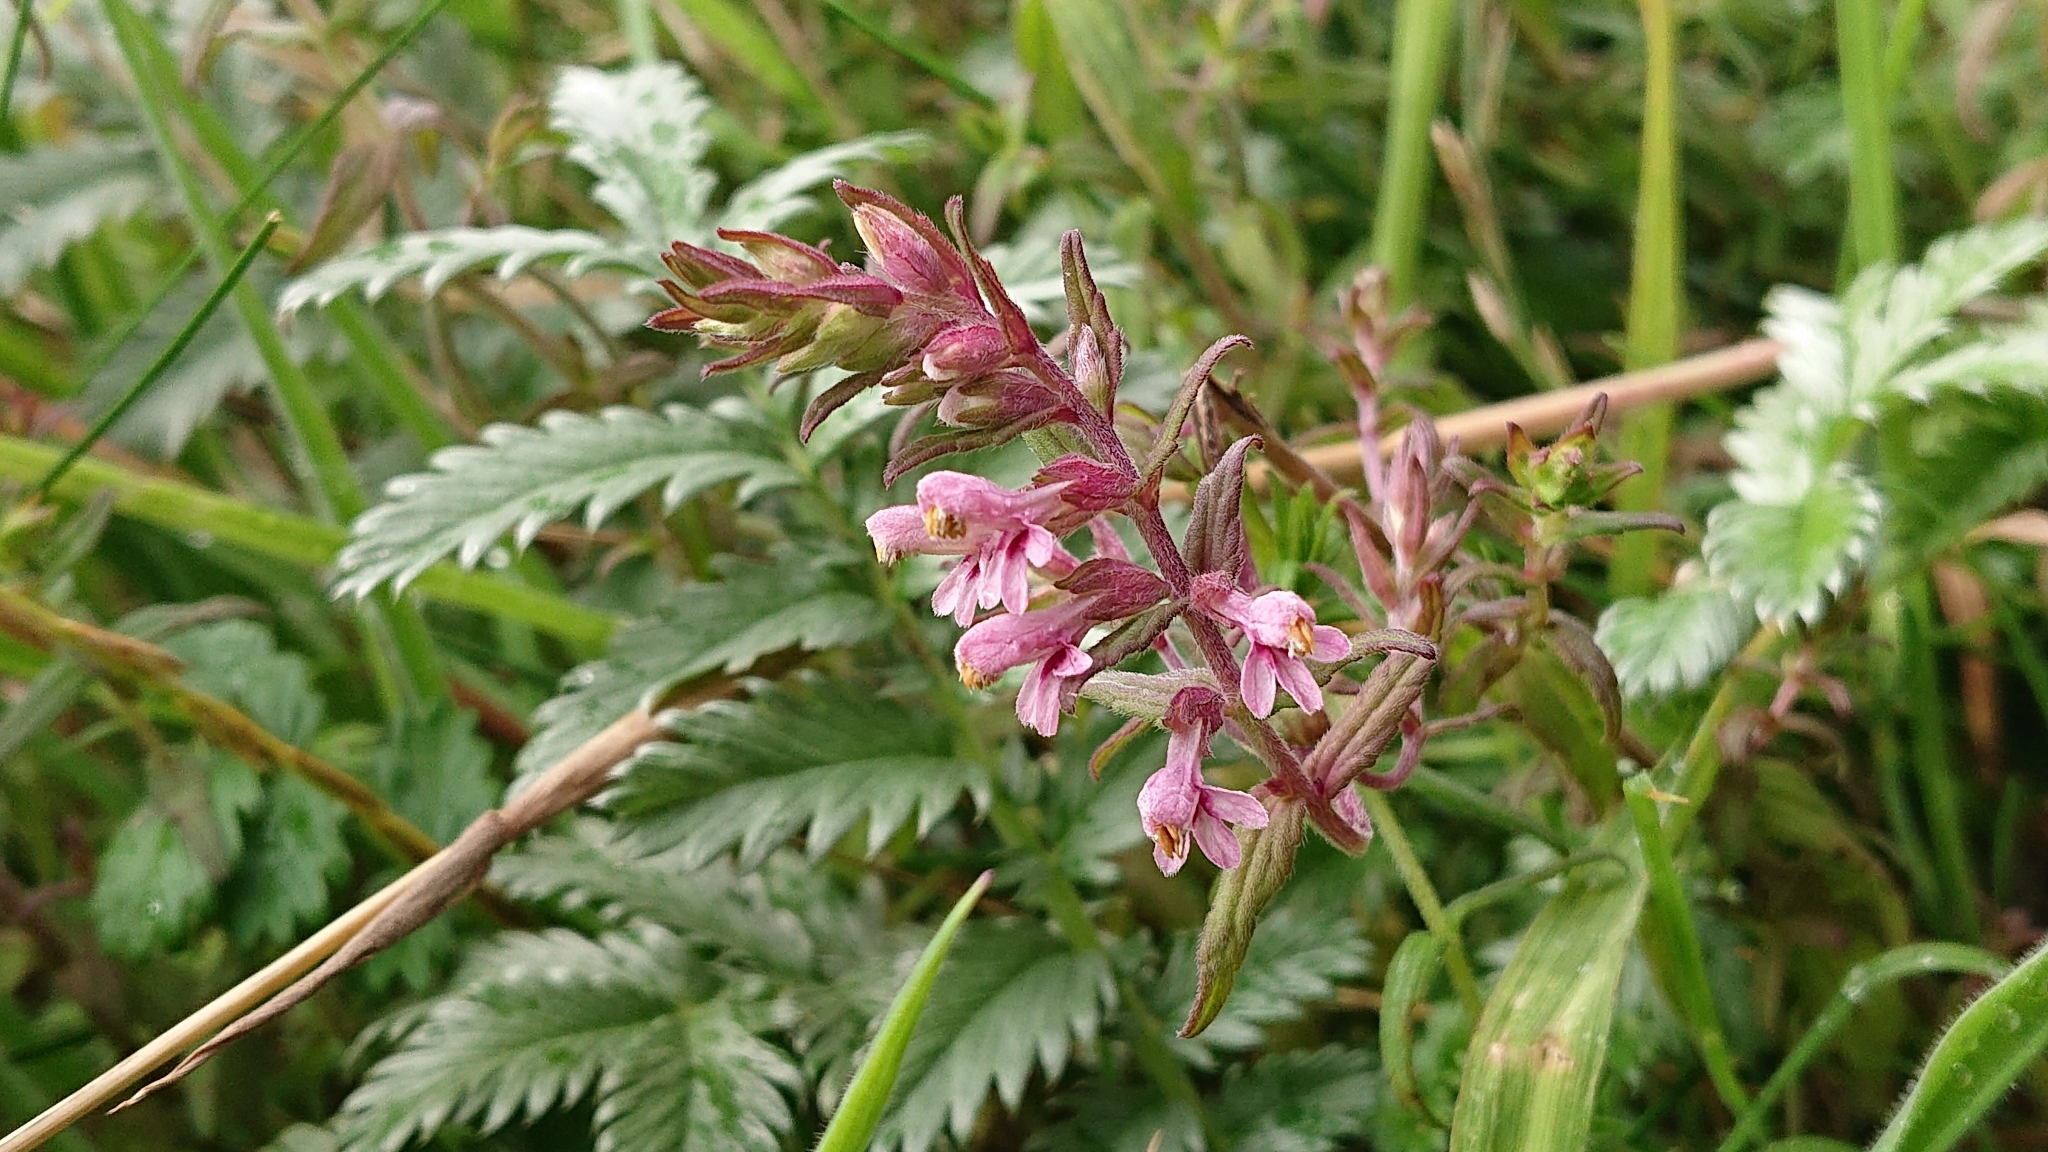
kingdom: Plantae
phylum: Tracheophyta
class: Magnoliopsida
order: Lamiales
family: Orobanchaceae
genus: Odontites
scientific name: Odontites vernus
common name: Red bartsia
